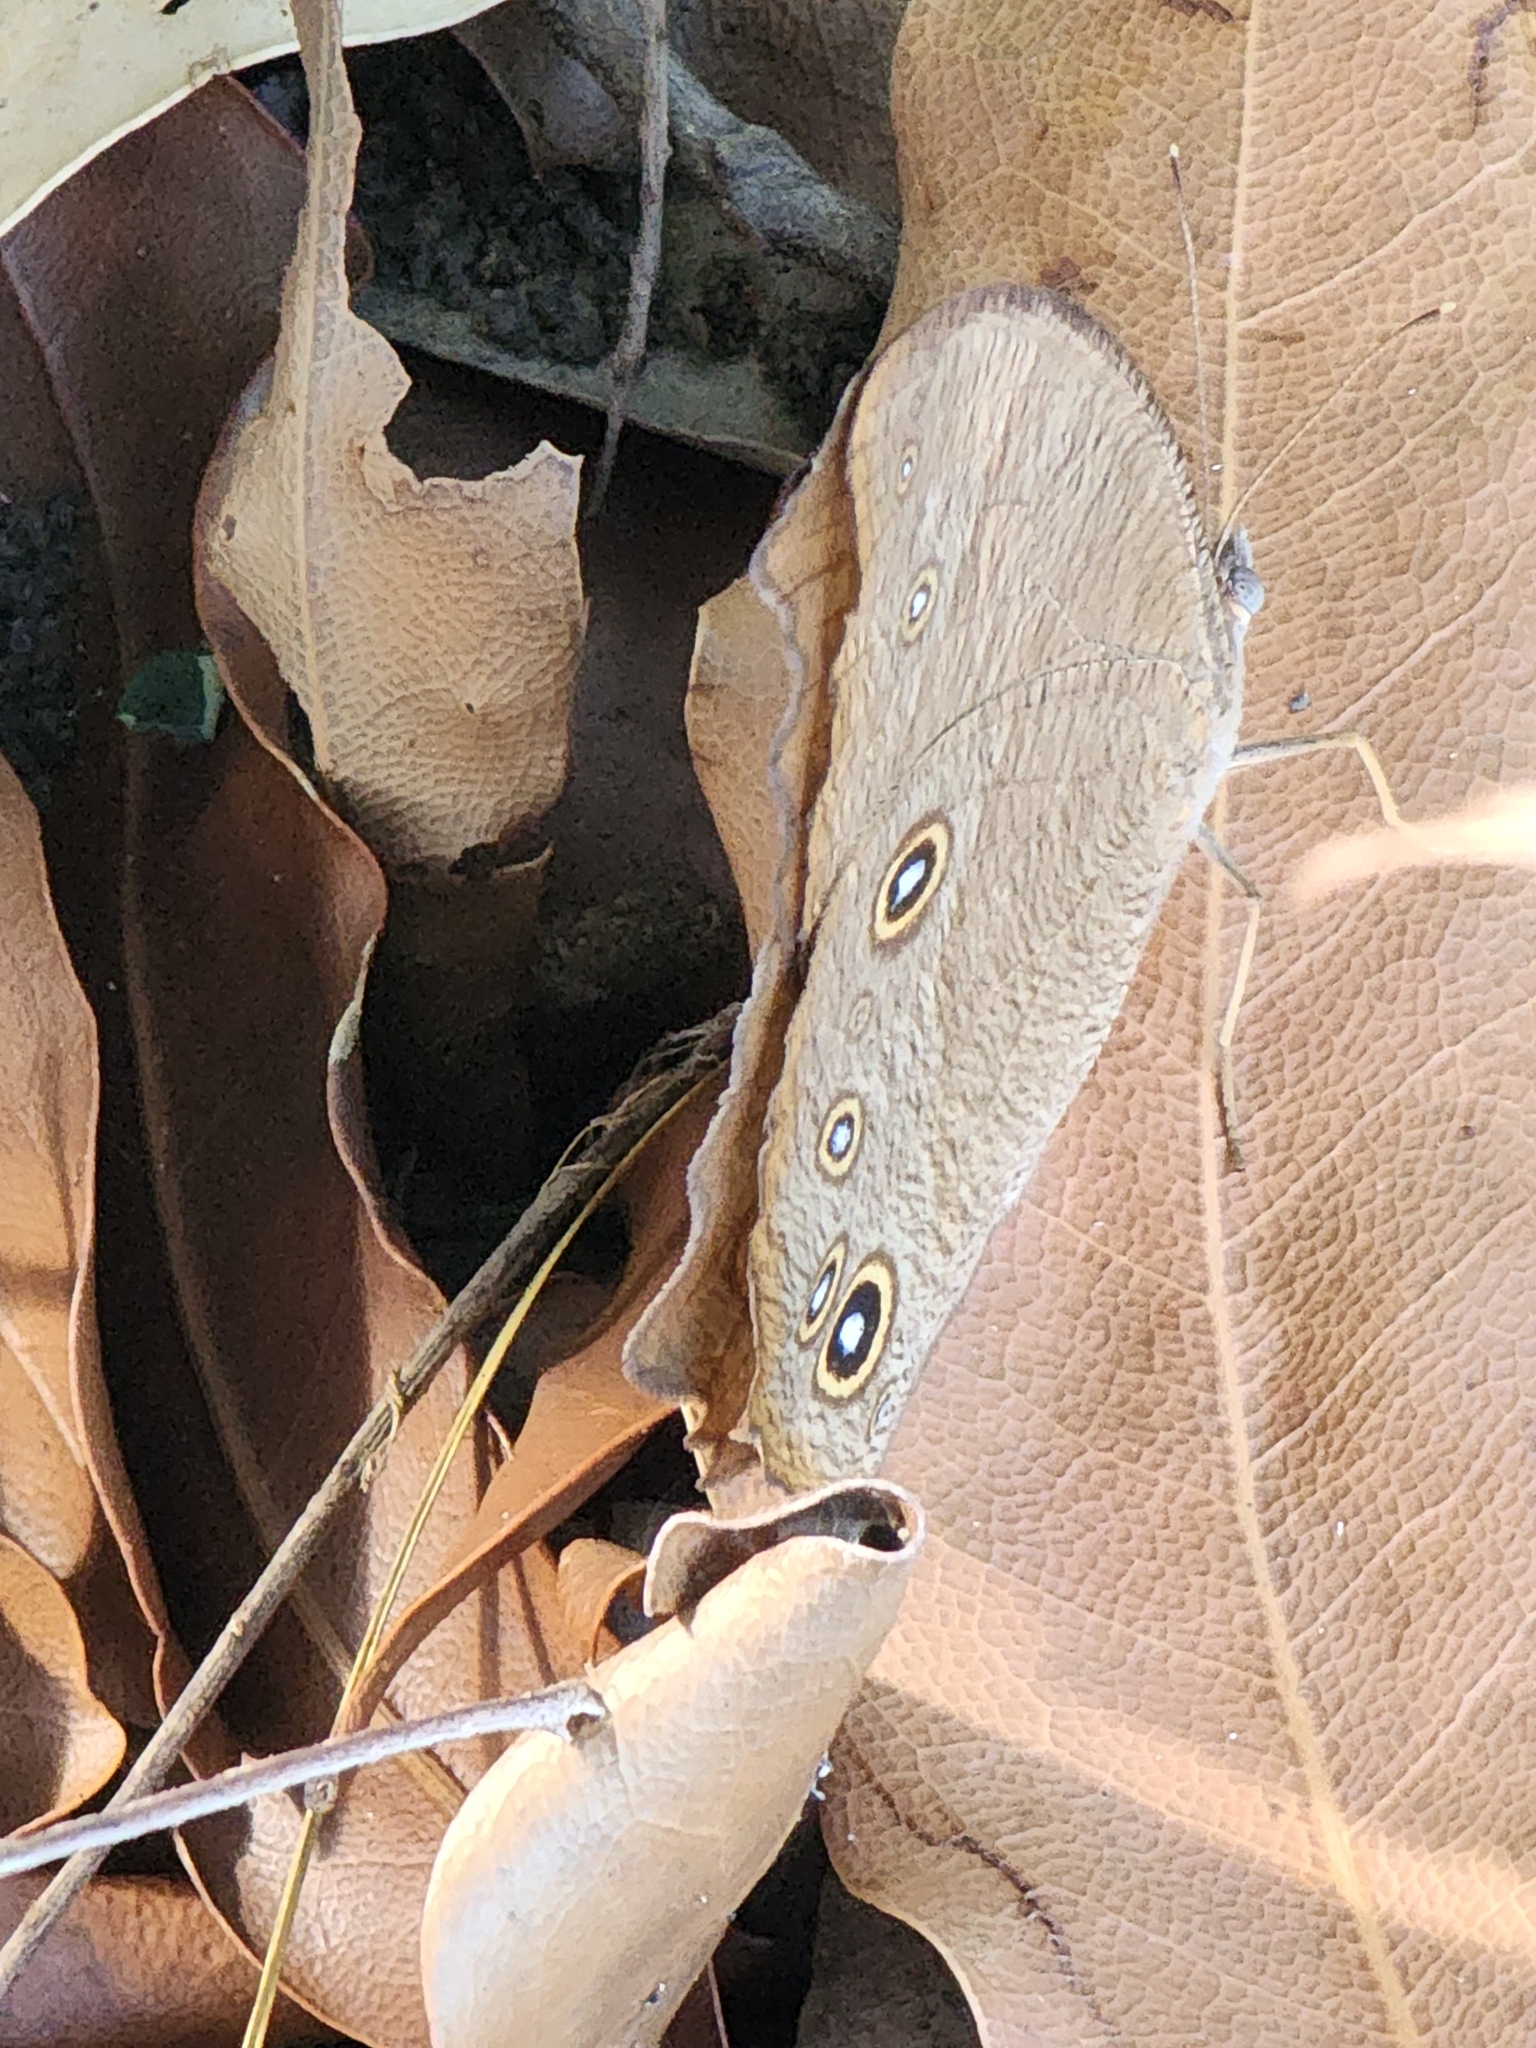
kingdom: Animalia
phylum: Arthropoda
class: Insecta
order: Lepidoptera
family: Nymphalidae
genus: Melanitis
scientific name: Melanitis leda
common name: Twilight brown
